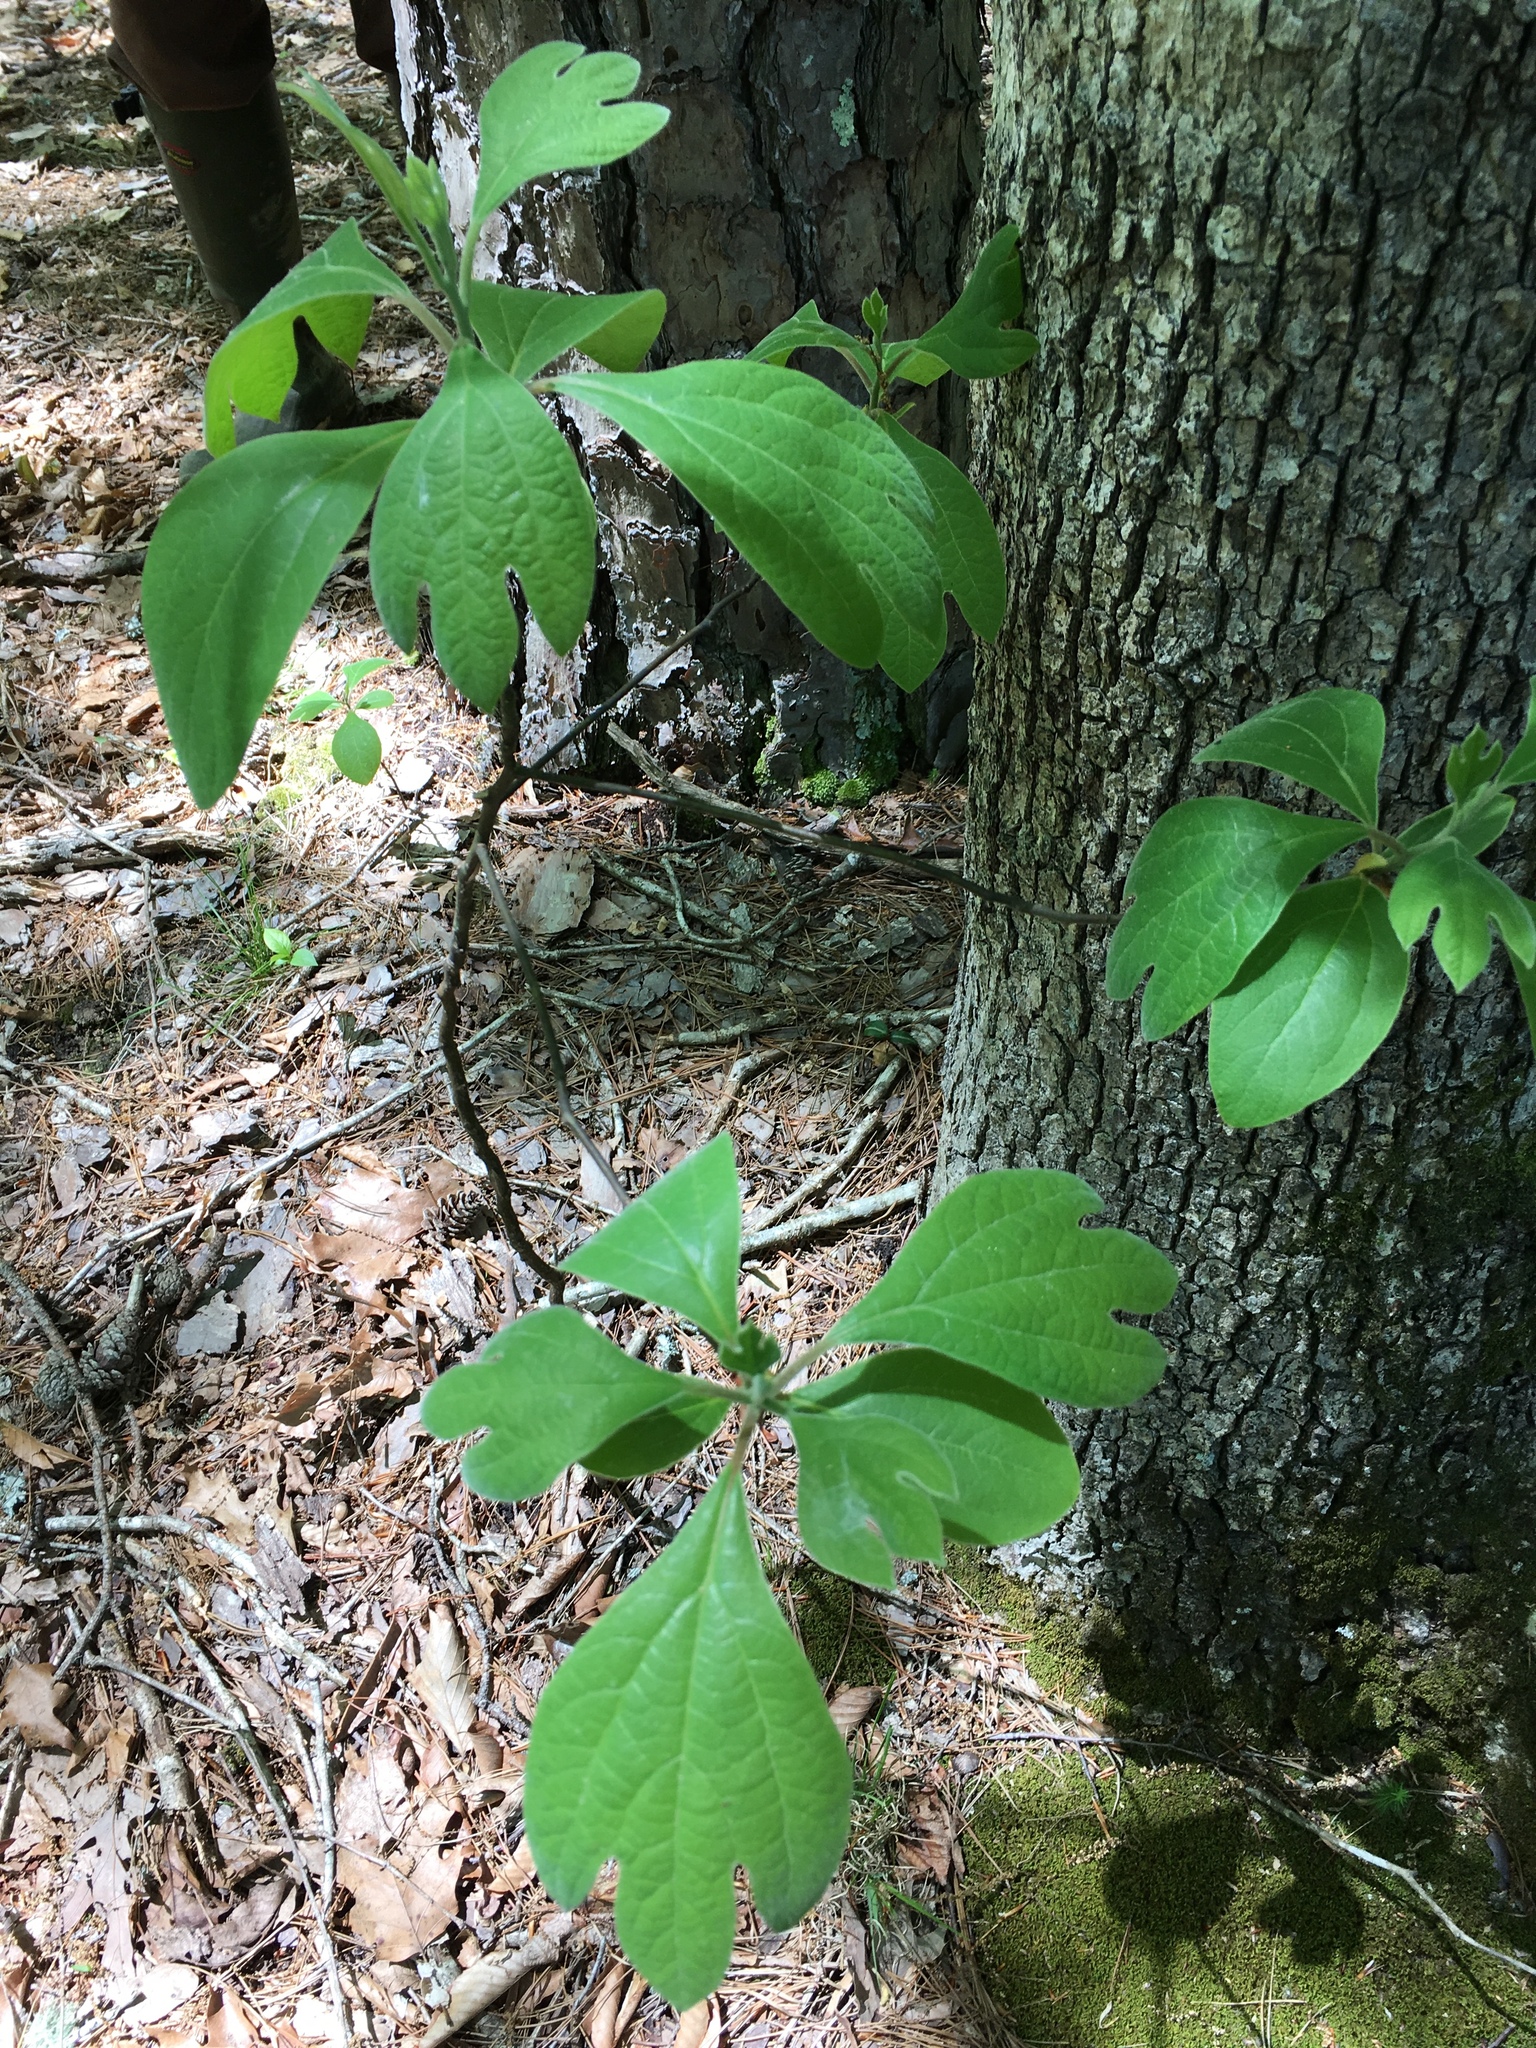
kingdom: Plantae
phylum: Tracheophyta
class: Magnoliopsida
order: Laurales
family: Lauraceae
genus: Sassafras
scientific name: Sassafras albidum
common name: Sassafras
